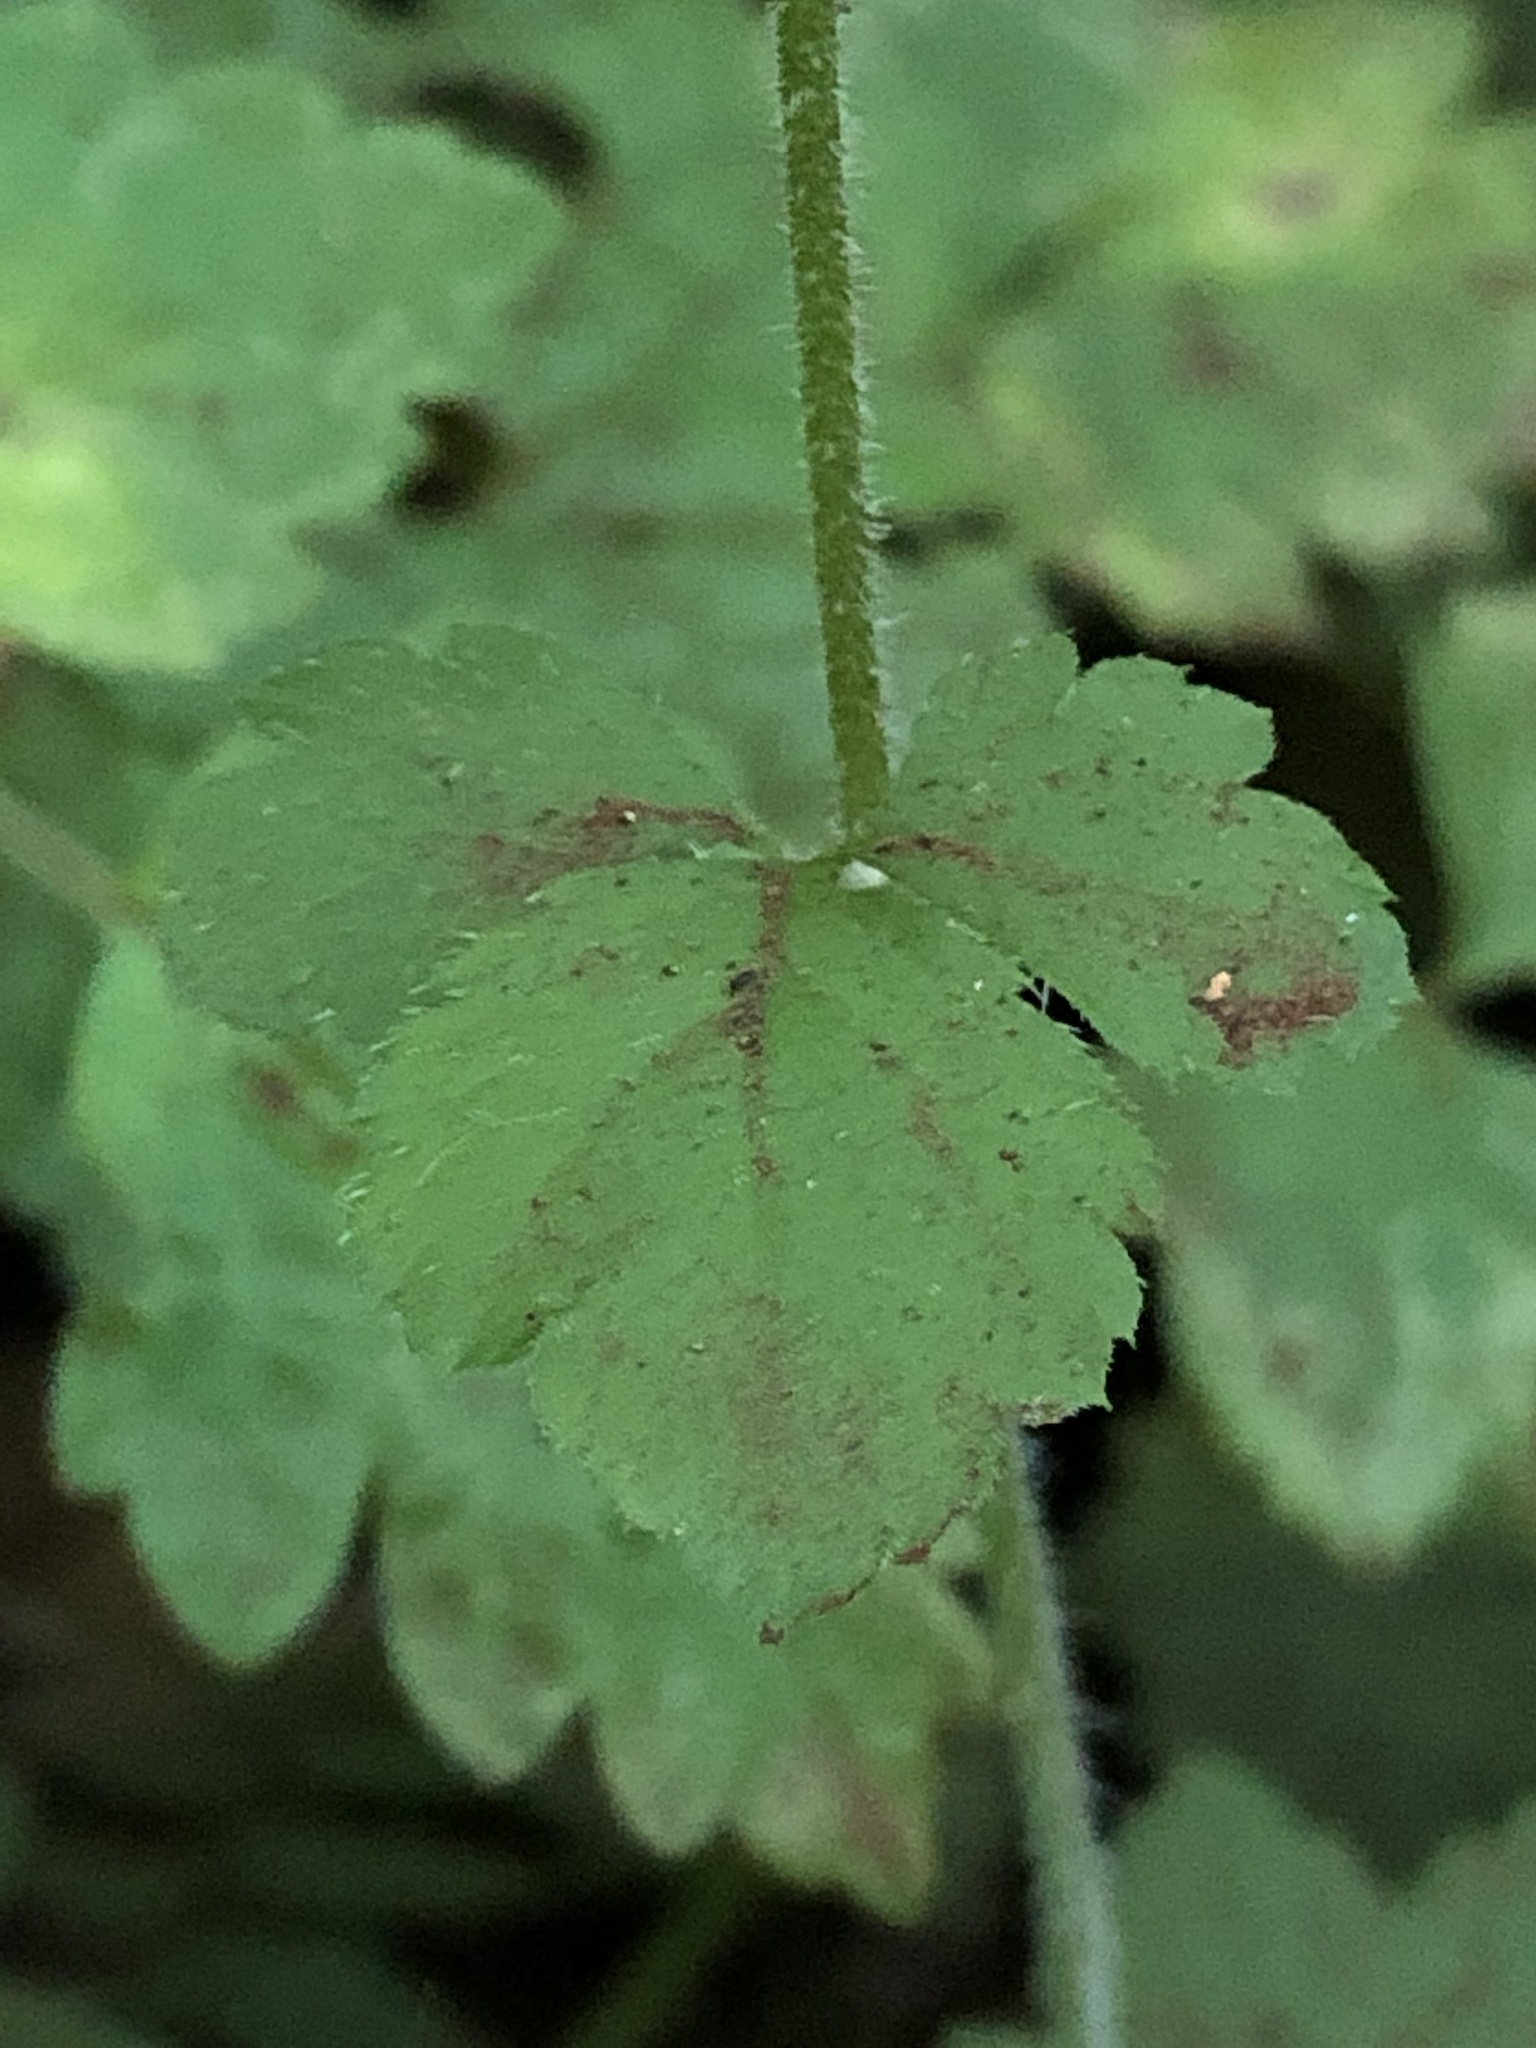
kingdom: Plantae
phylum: Tracheophyta
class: Magnoliopsida
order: Saxifragales
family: Saxifragaceae
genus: Tiarella
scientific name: Tiarella trifoliata
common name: Sugar-scoop
